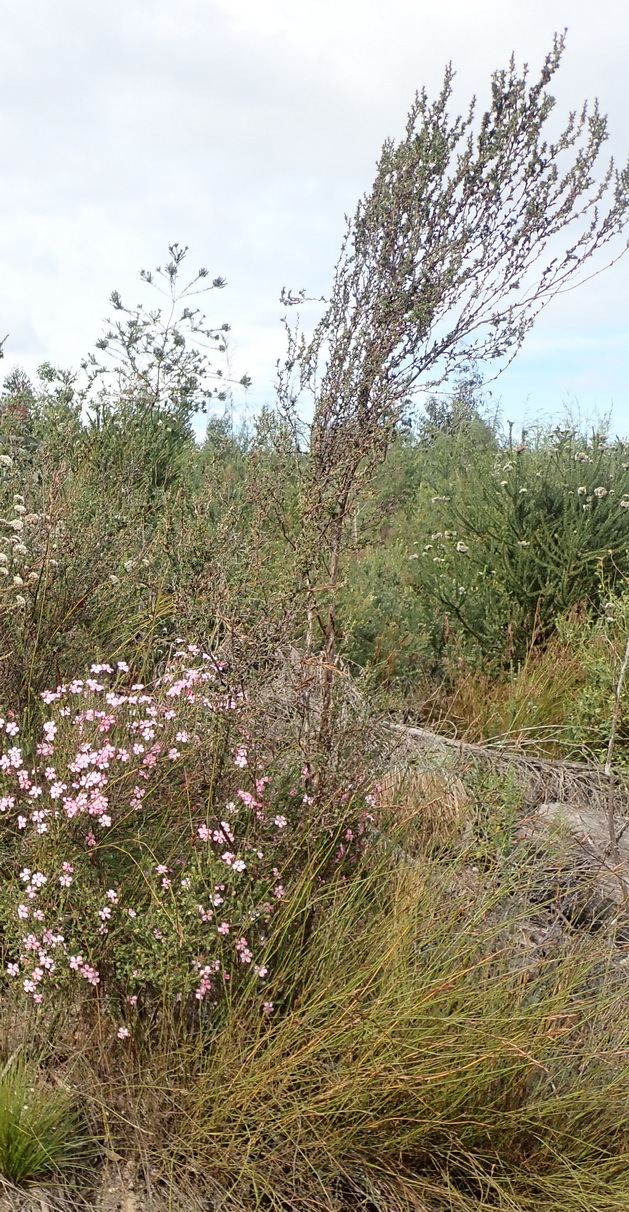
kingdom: Plantae
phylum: Tracheophyta
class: Magnoliopsida
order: Ericales
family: Ericaceae
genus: Erica
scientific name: Erica unicolor
